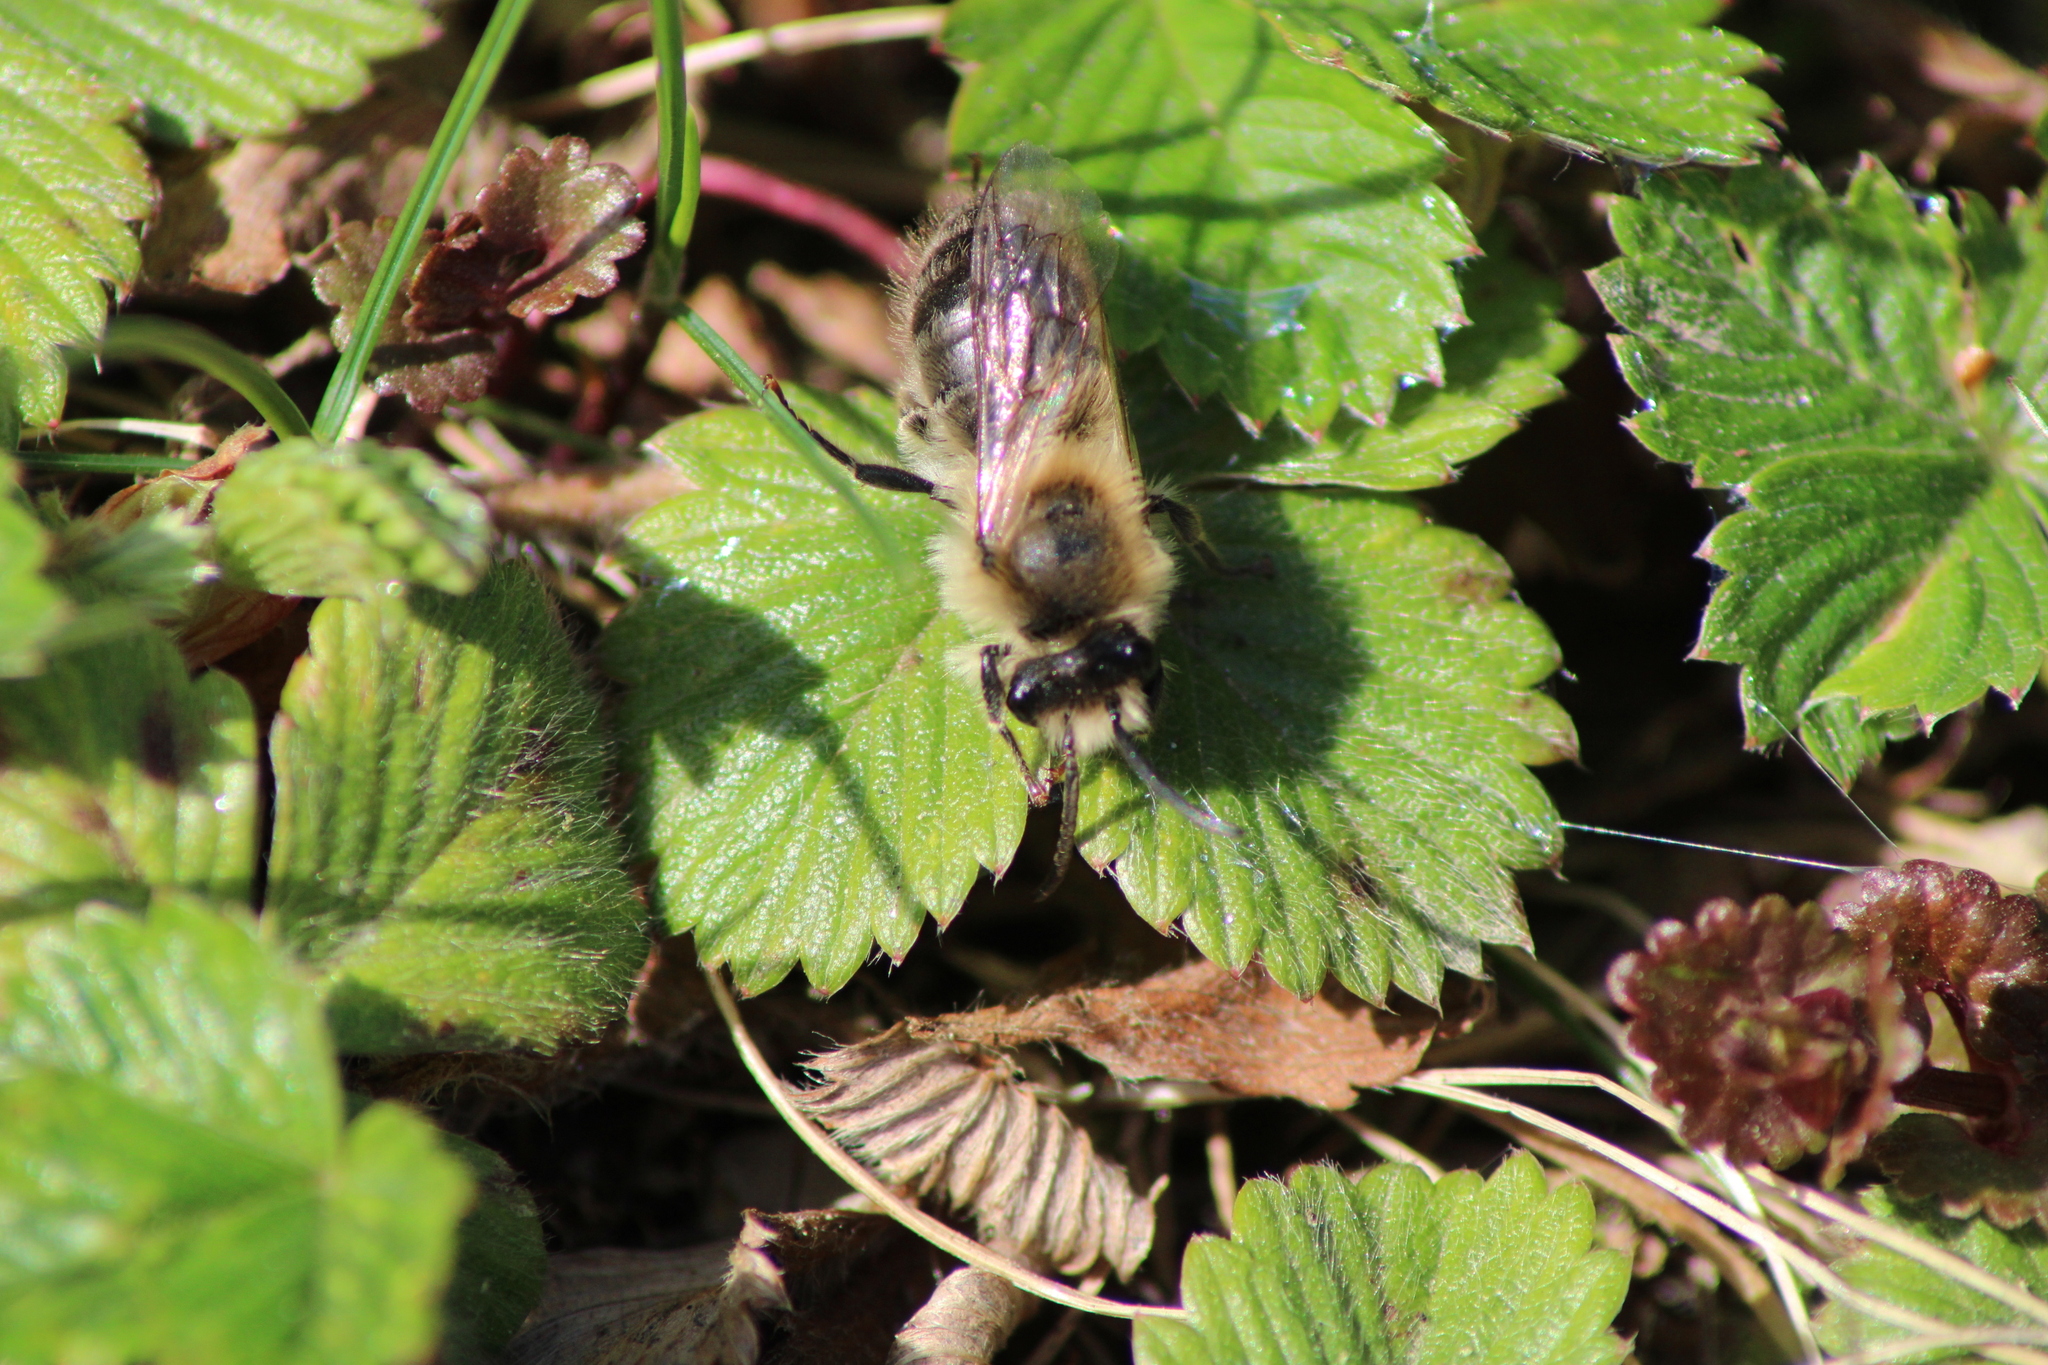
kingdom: Animalia
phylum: Arthropoda
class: Insecta
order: Hymenoptera
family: Colletidae
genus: Colletes
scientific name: Colletes cunicularius
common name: Early colletes
